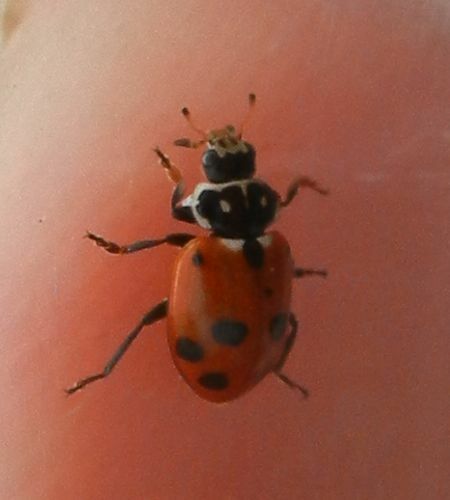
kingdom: Animalia
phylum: Arthropoda
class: Insecta
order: Coleoptera
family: Coccinellidae
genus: Hippodamia
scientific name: Hippodamia variegata
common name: Ladybird beetle
